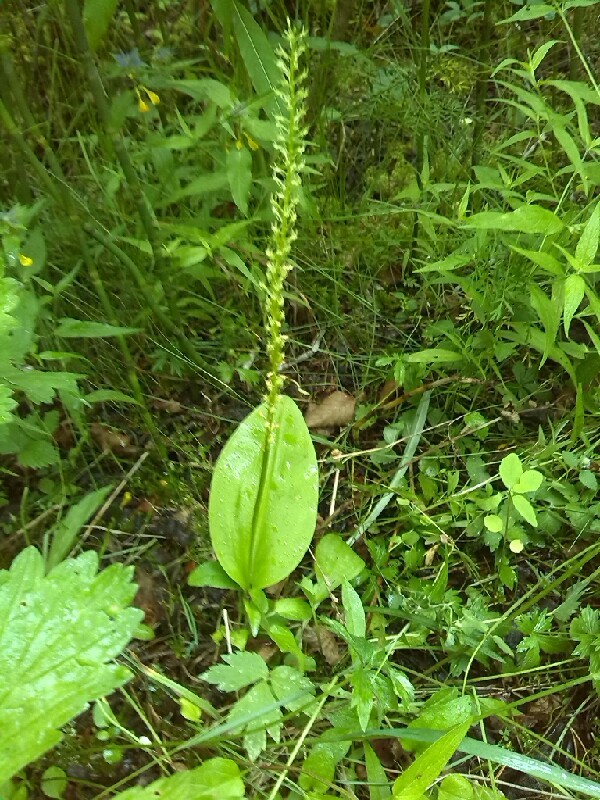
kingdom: Plantae
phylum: Tracheophyta
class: Liliopsida
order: Asparagales
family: Orchidaceae
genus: Malaxis
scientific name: Malaxis monophyllos
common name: White adder's-mouth
